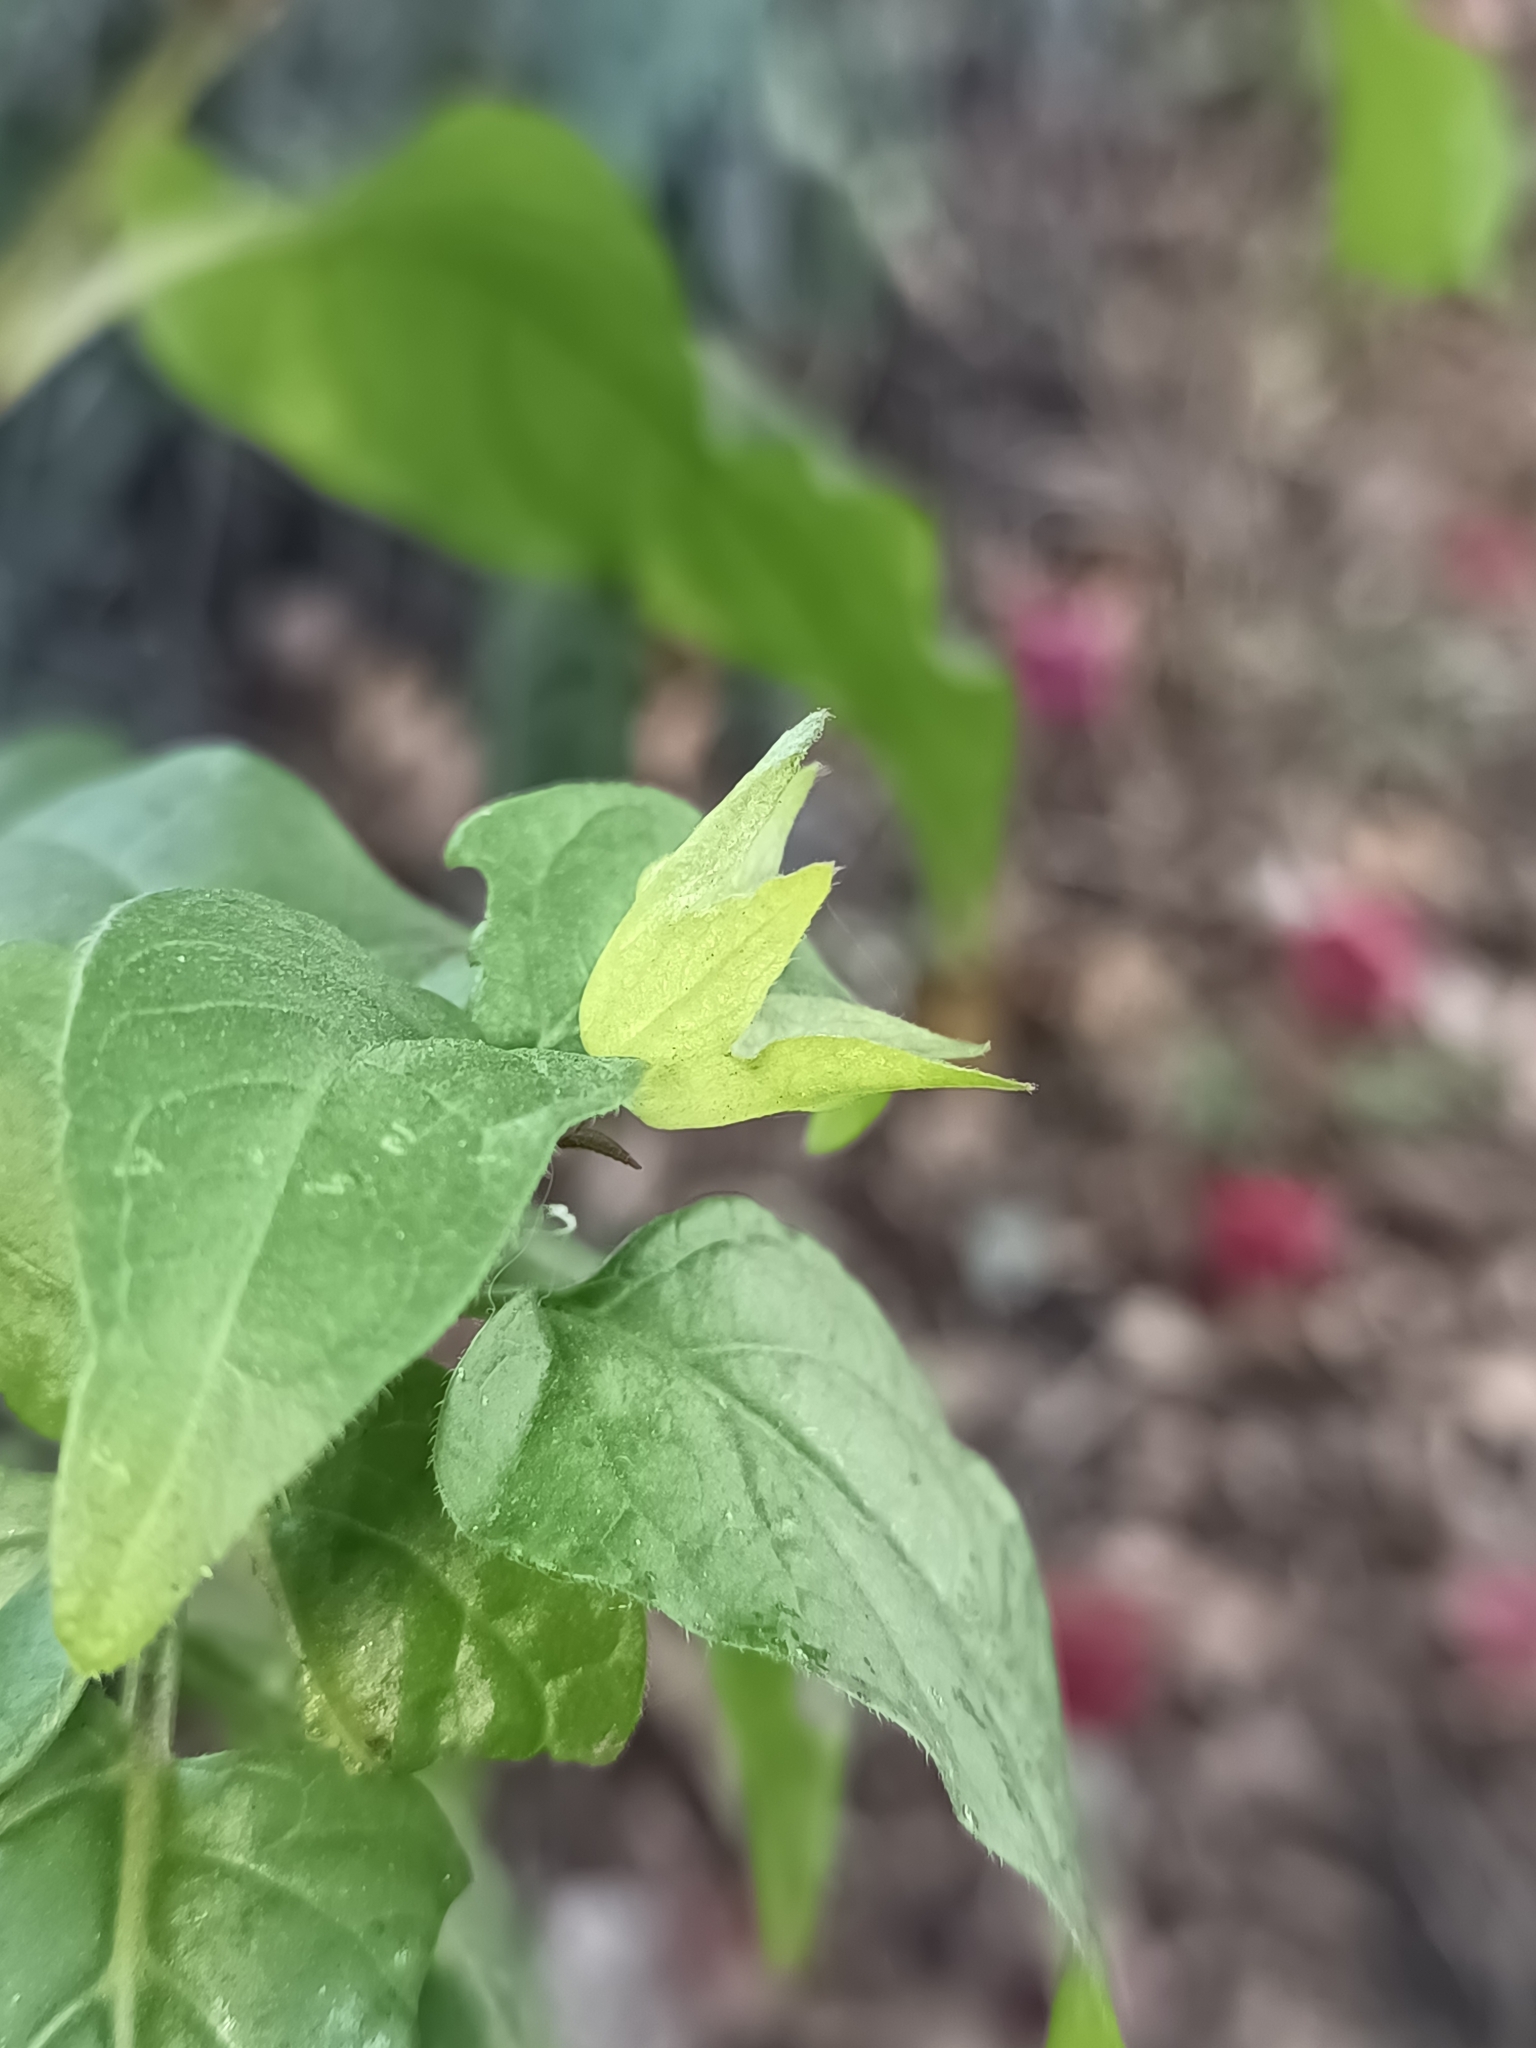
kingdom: Plantae
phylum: Tracheophyta
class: Magnoliopsida
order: Caryophyllales
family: Nyctaginaceae
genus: Mirabilis
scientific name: Mirabilis jalapa
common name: Marvel-of-peru
